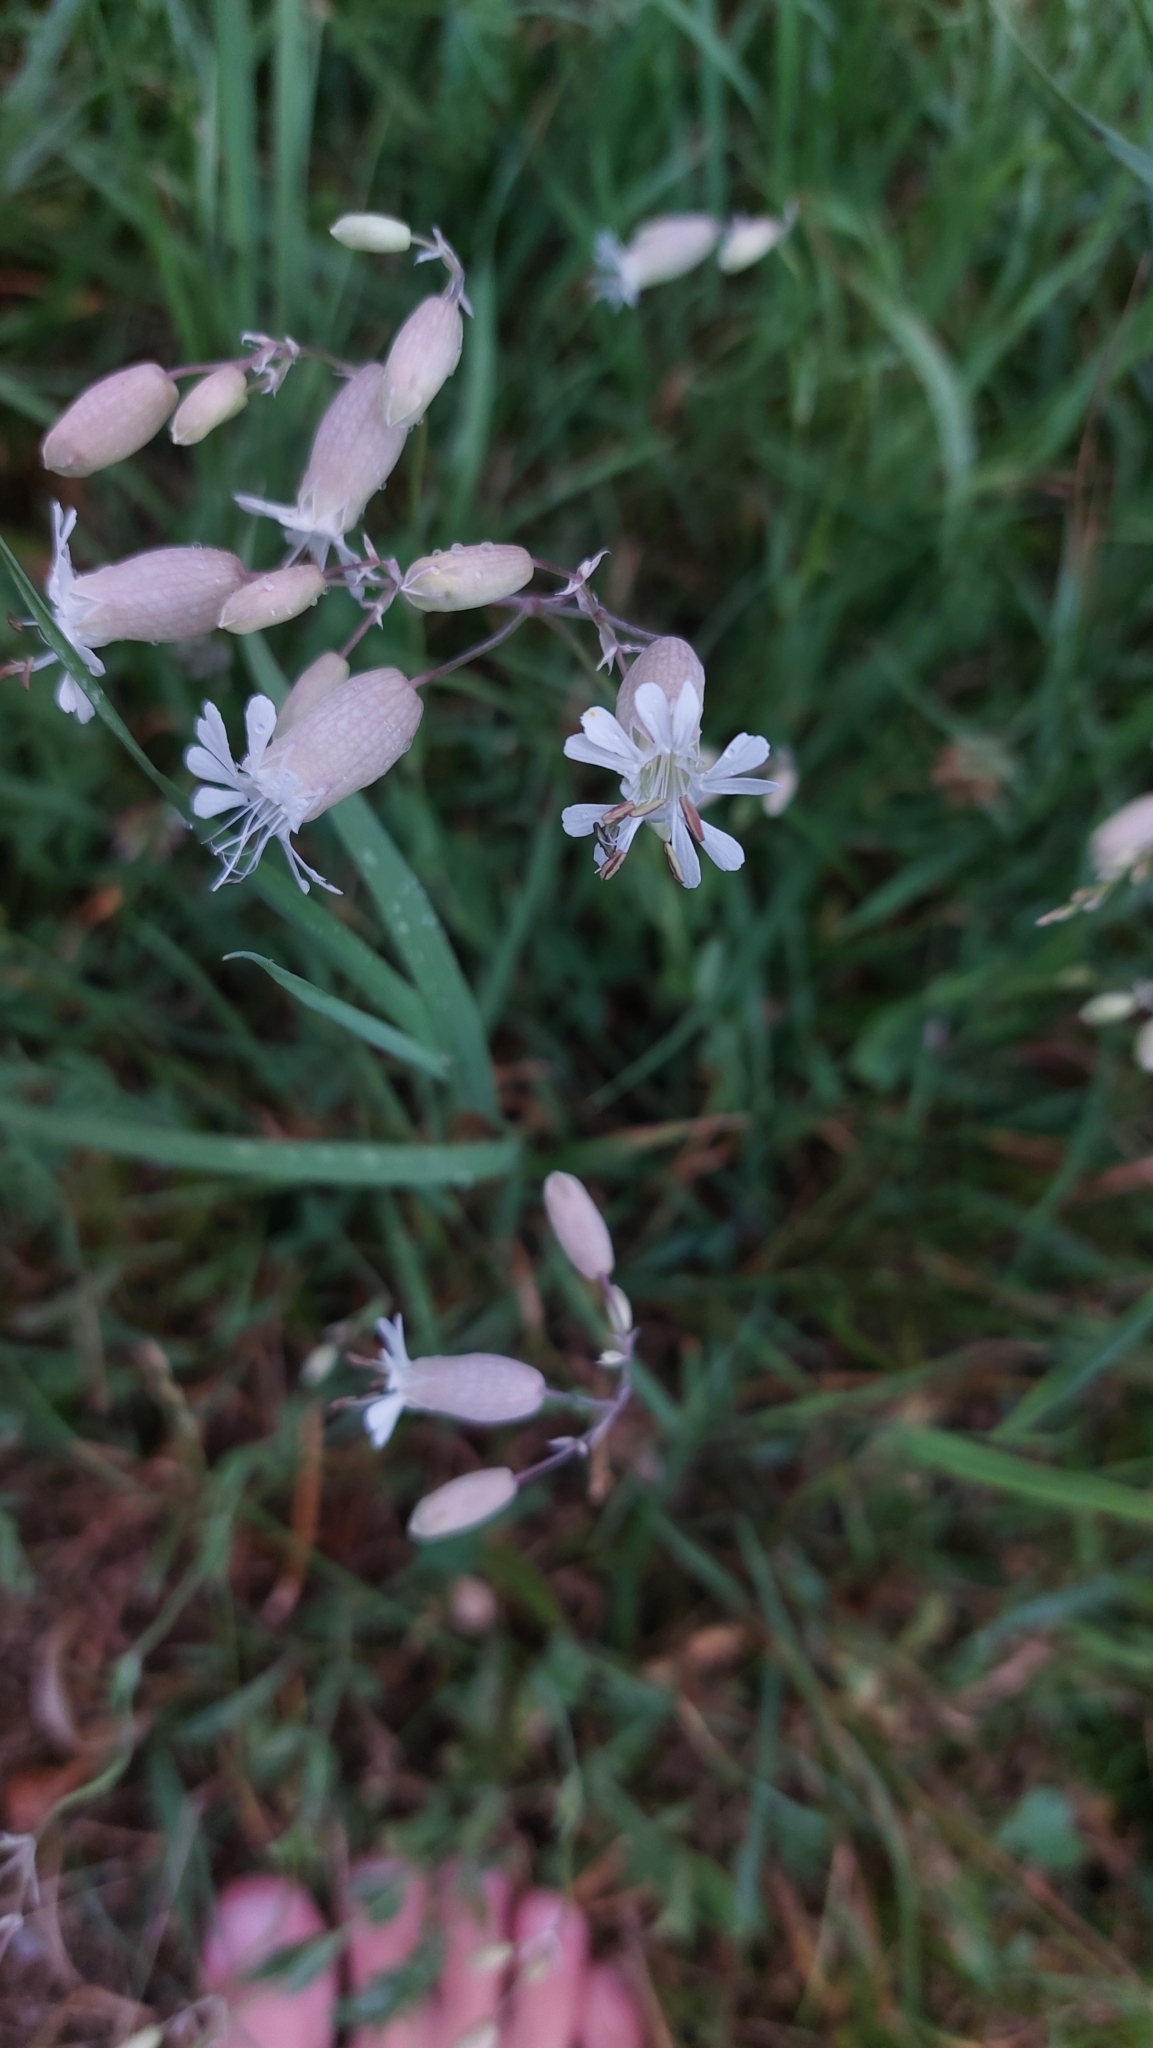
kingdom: Plantae
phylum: Tracheophyta
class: Magnoliopsida
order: Caryophyllales
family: Caryophyllaceae
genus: Silene
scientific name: Silene vulgaris
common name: Bladder campion
